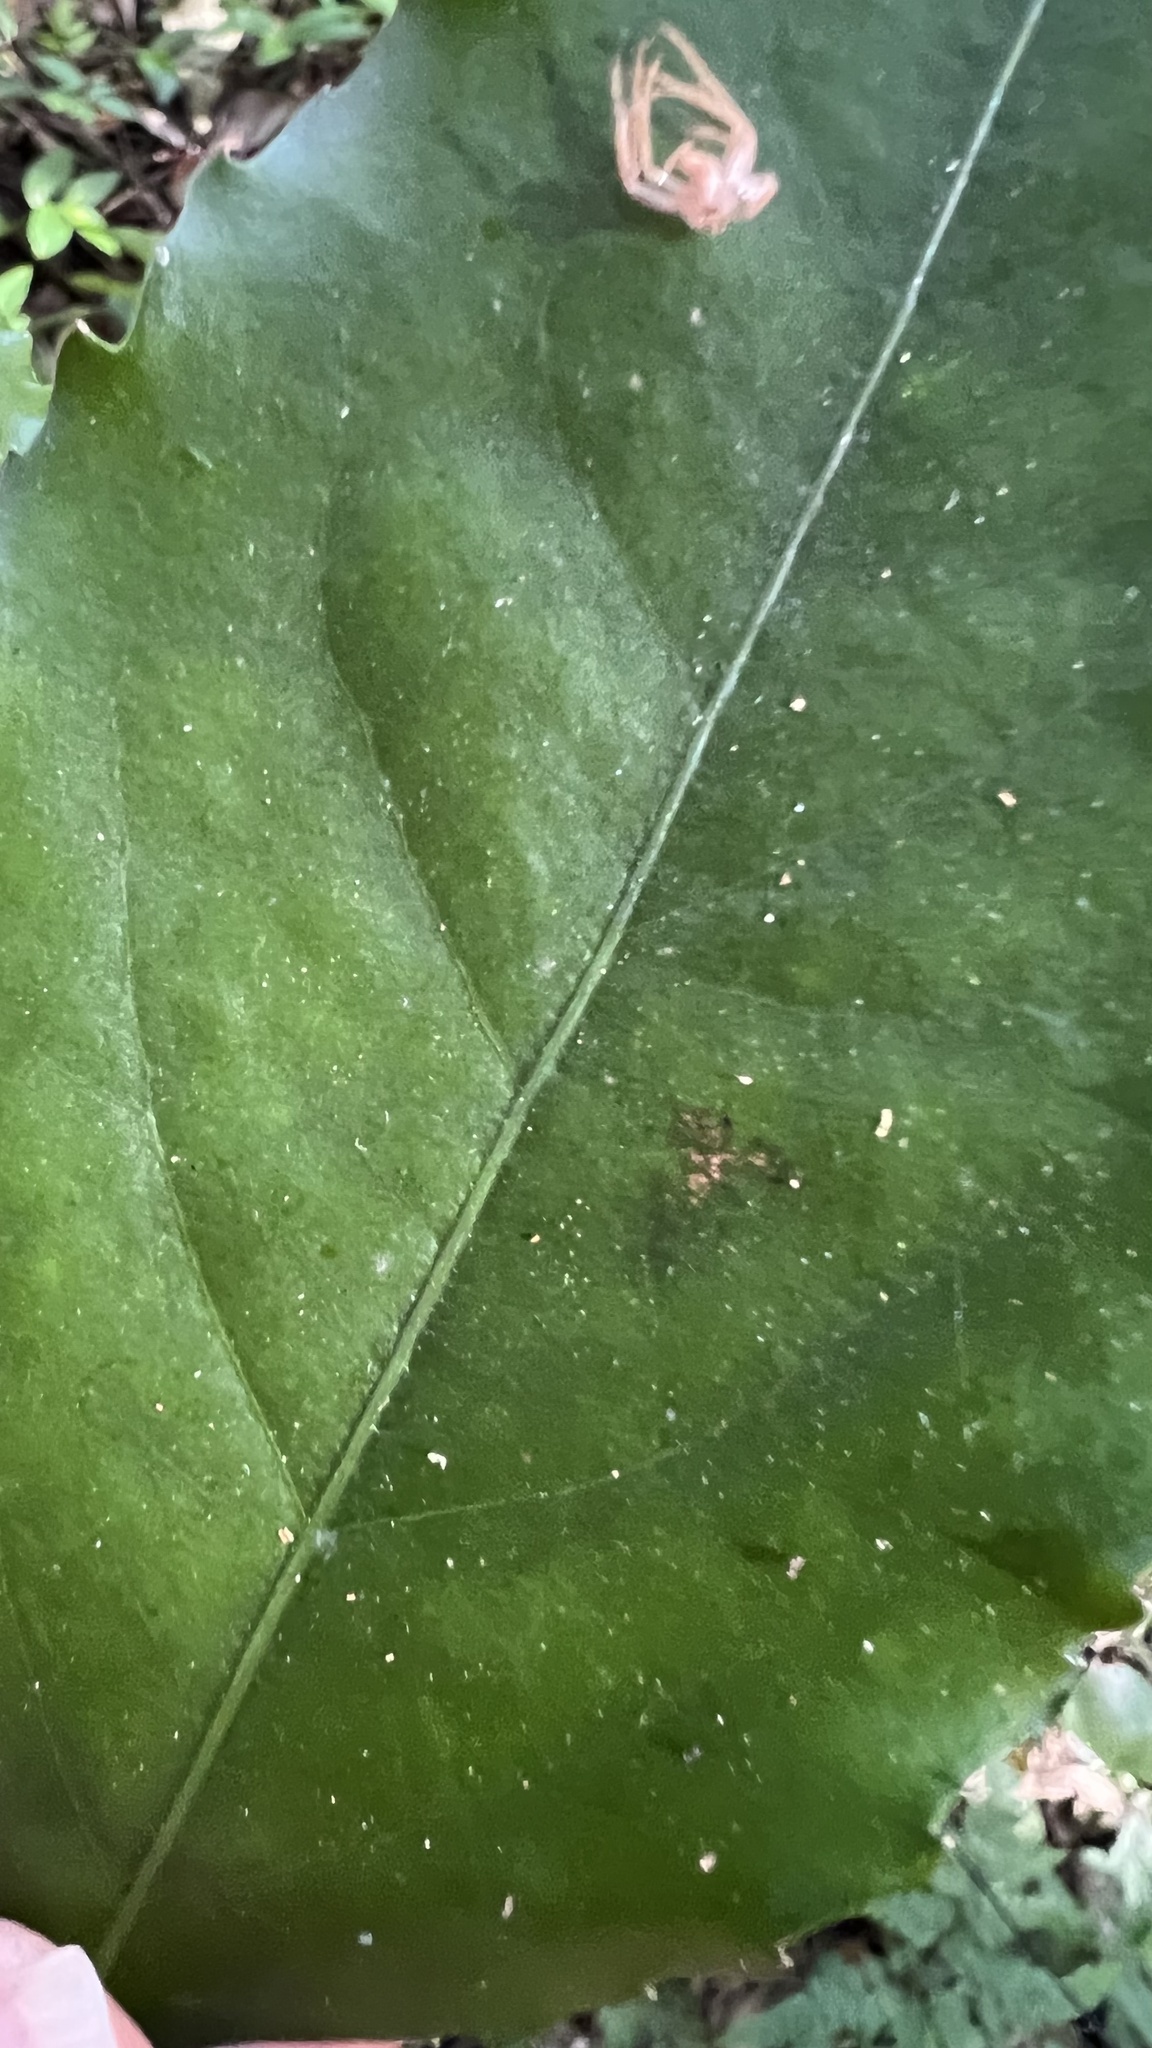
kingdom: Plantae
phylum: Tracheophyta
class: Magnoliopsida
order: Laurales
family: Atherospermataceae
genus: Daphnandra
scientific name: Daphnandra apatela
